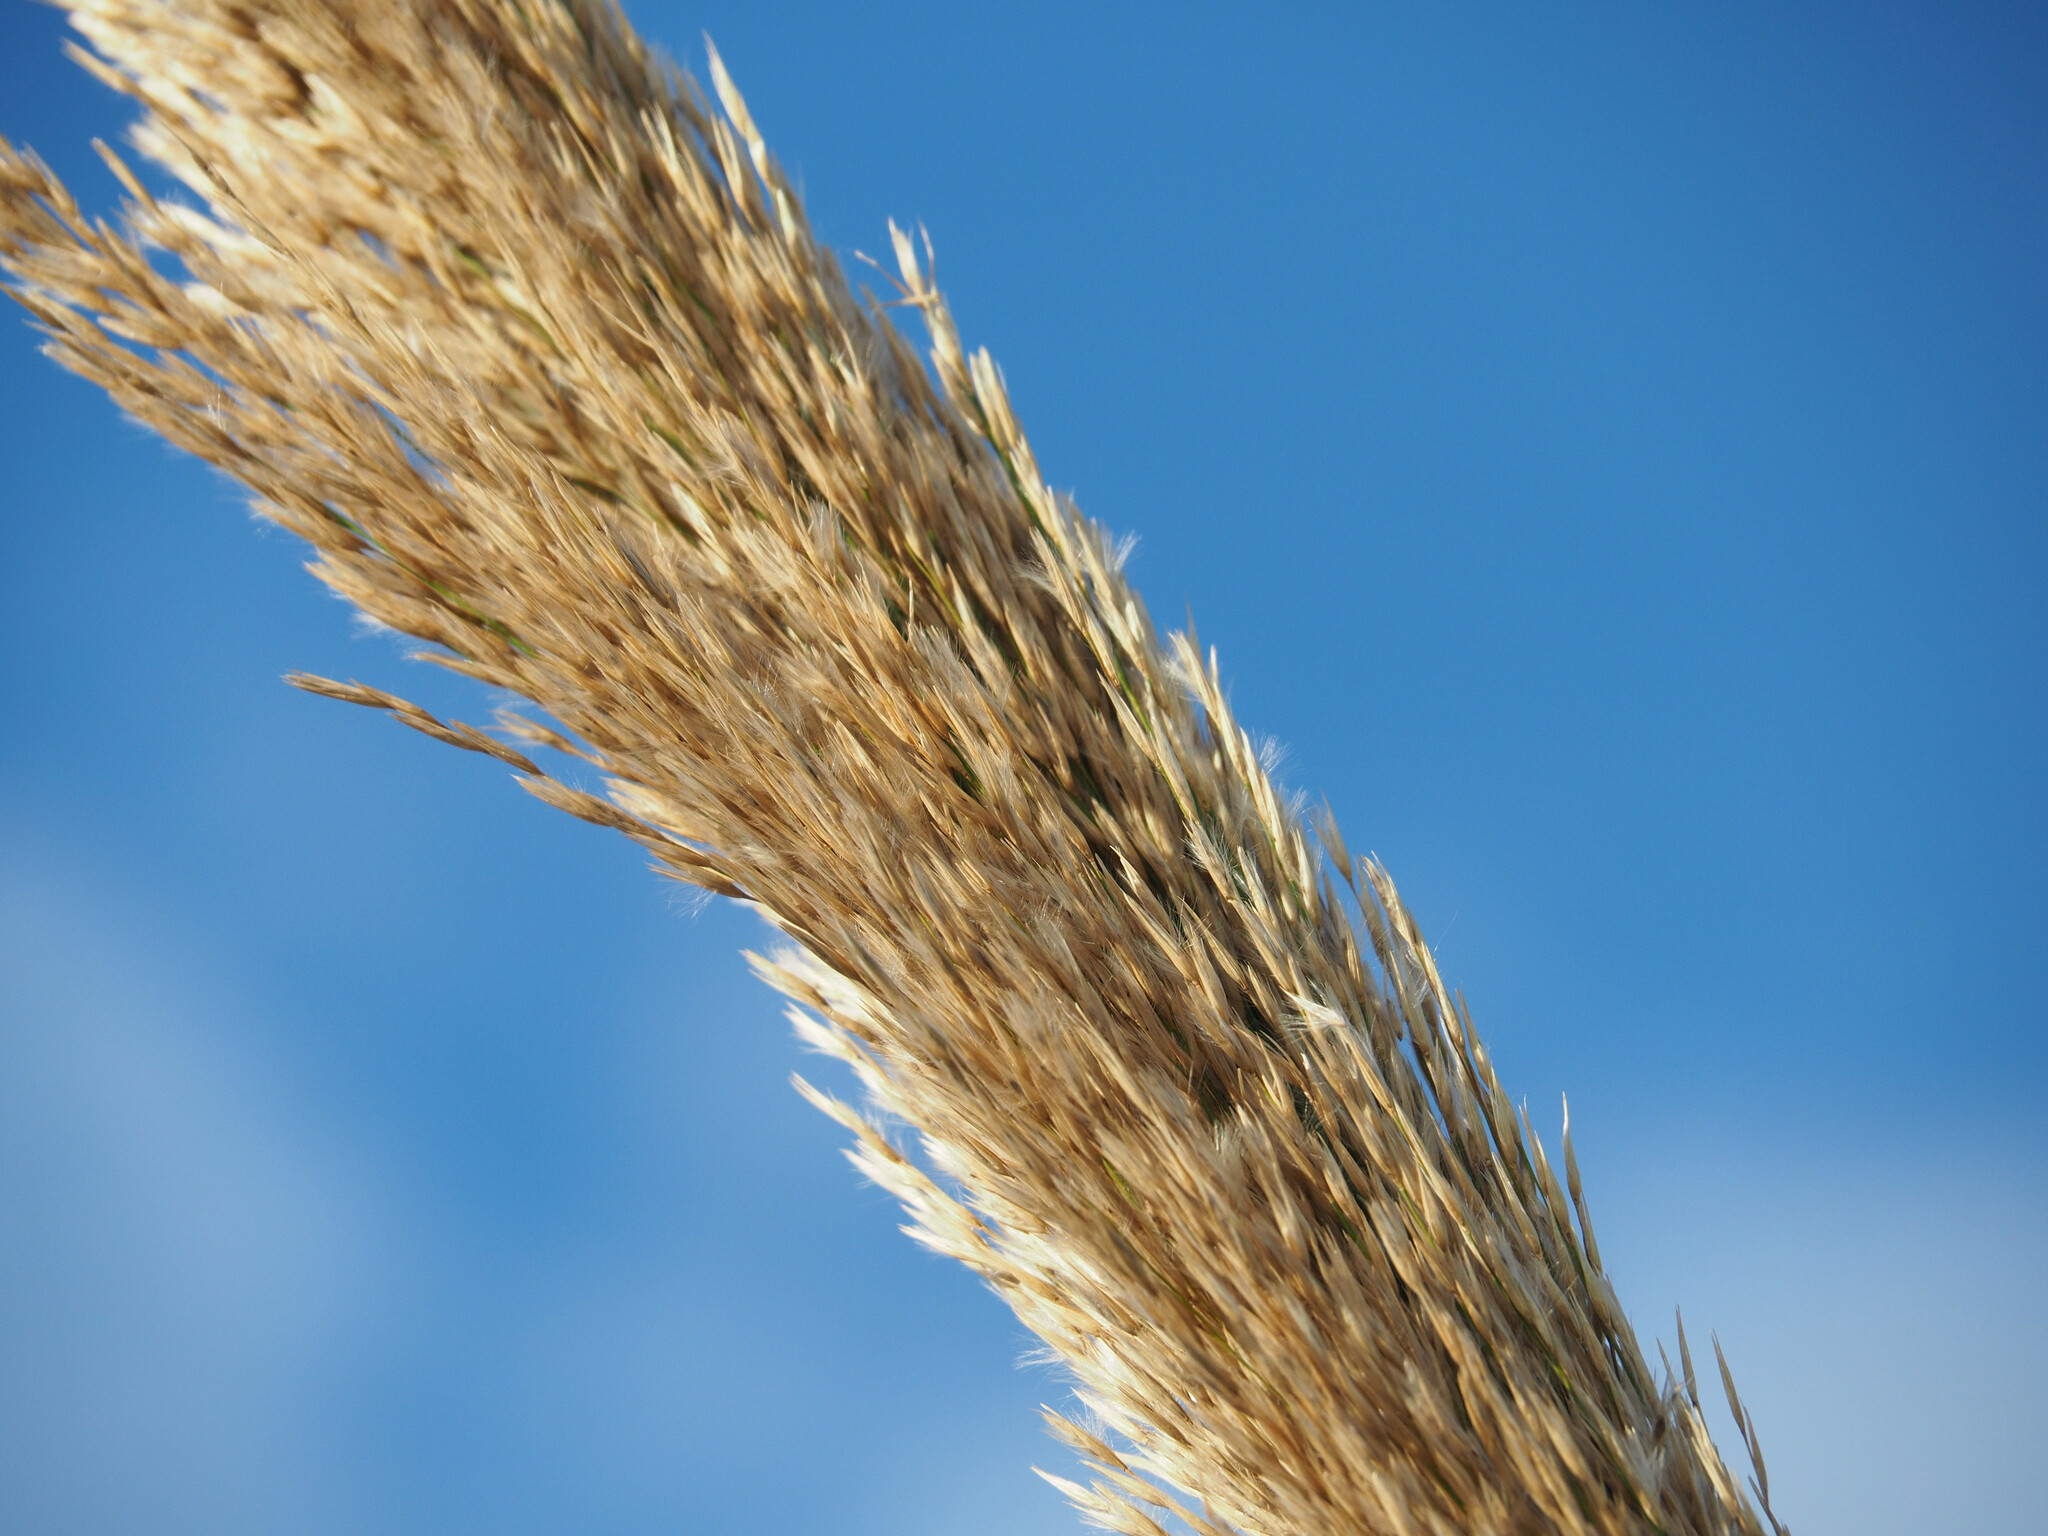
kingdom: Plantae
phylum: Tracheophyta
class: Liliopsida
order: Poales
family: Poaceae
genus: Arundo
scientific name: Arundo donax
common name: Giant reed
